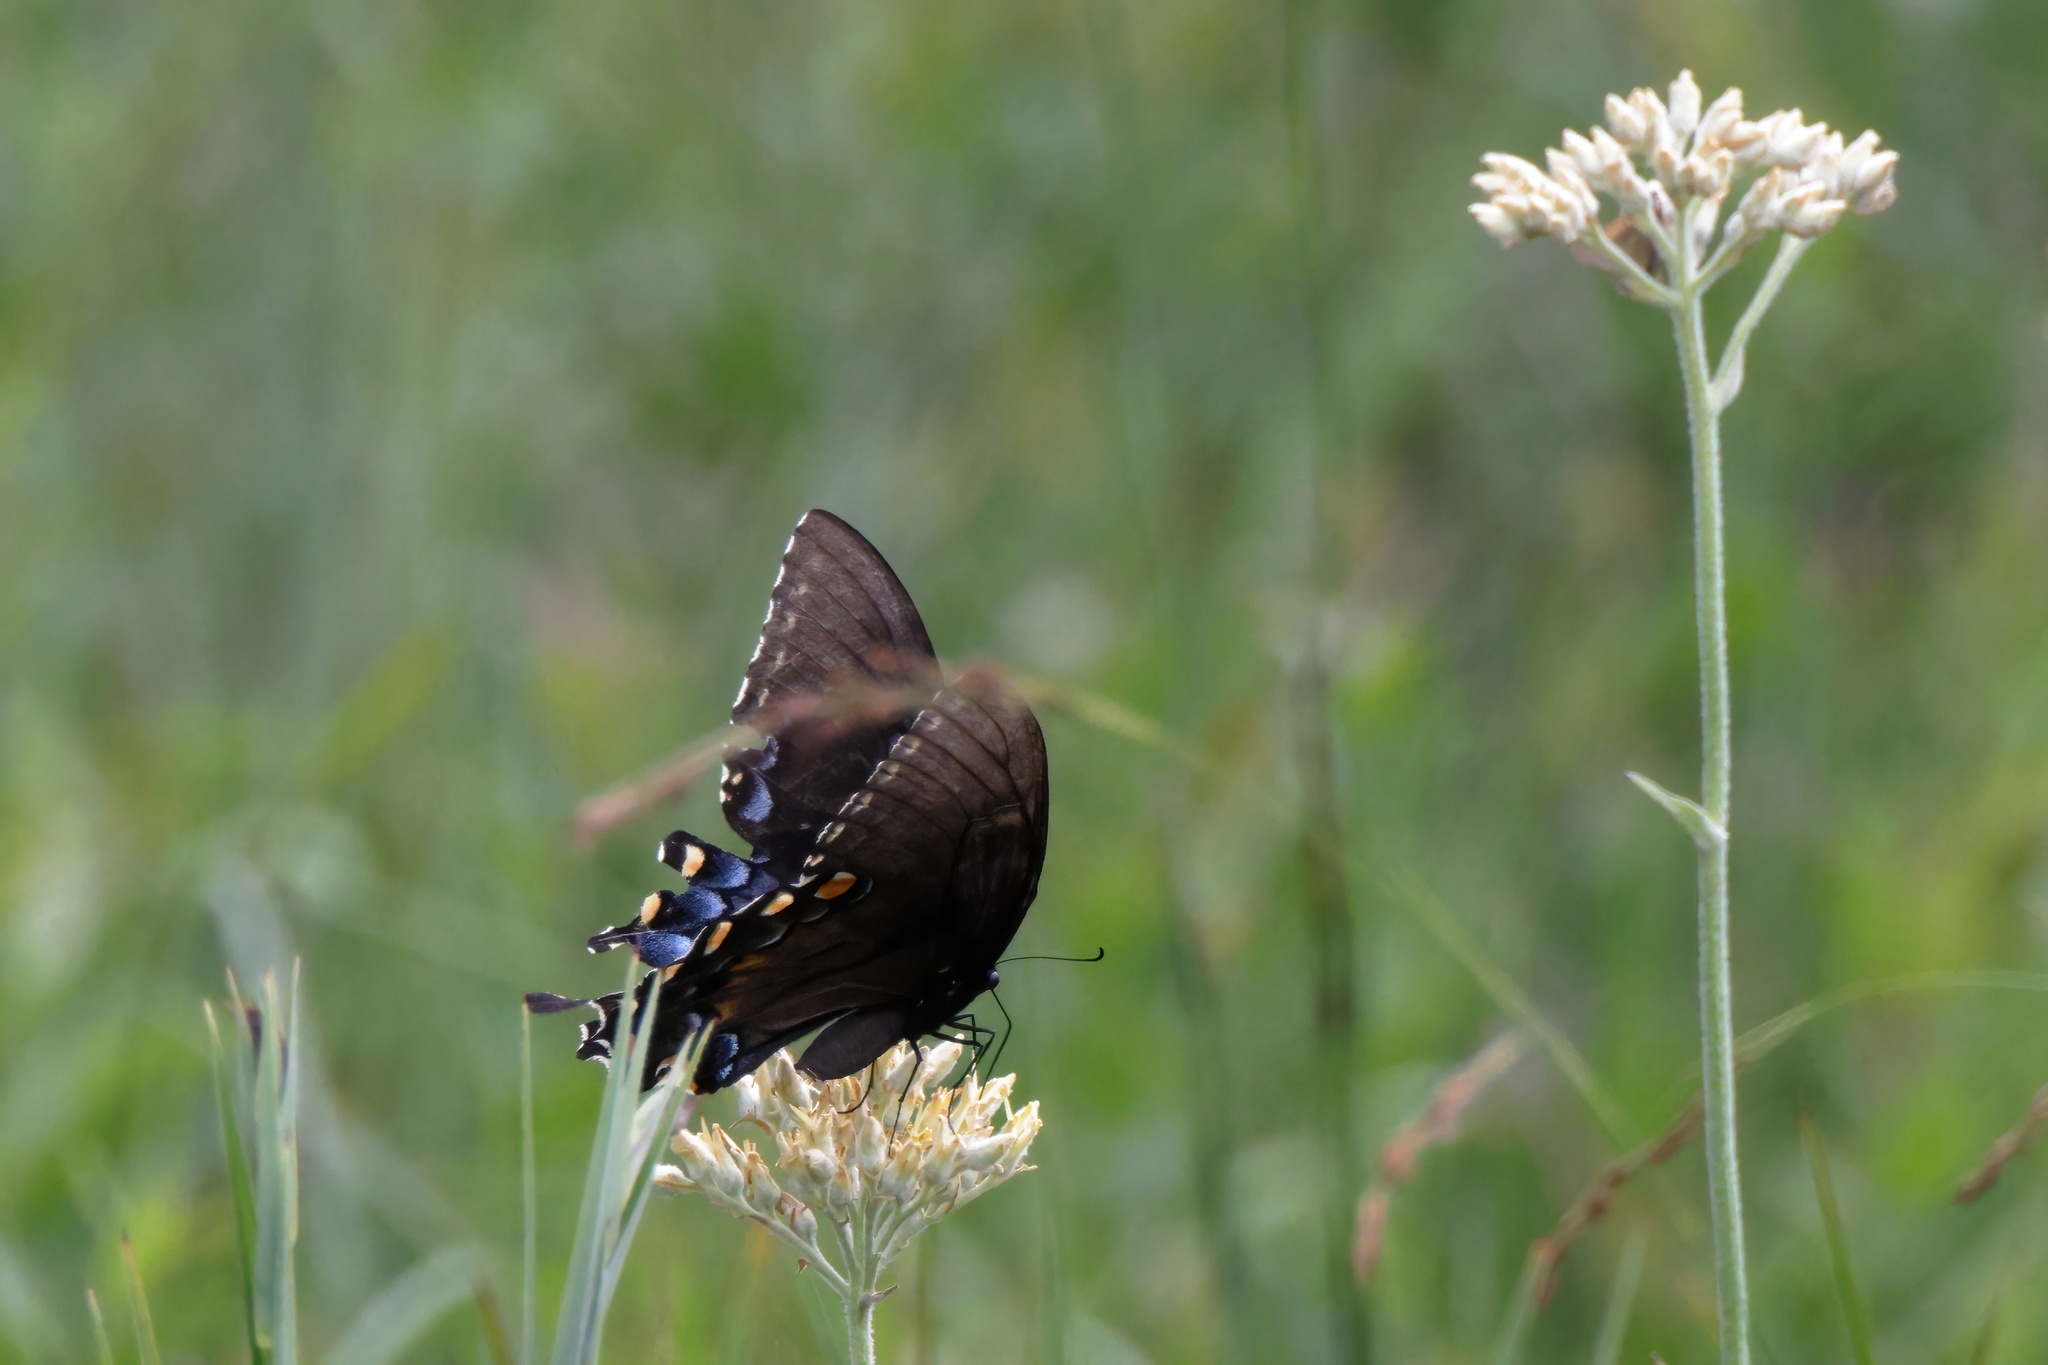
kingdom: Animalia
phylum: Arthropoda
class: Insecta
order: Lepidoptera
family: Papilionidae
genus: Papilio
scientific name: Papilio glaucus
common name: Tiger swallowtail
